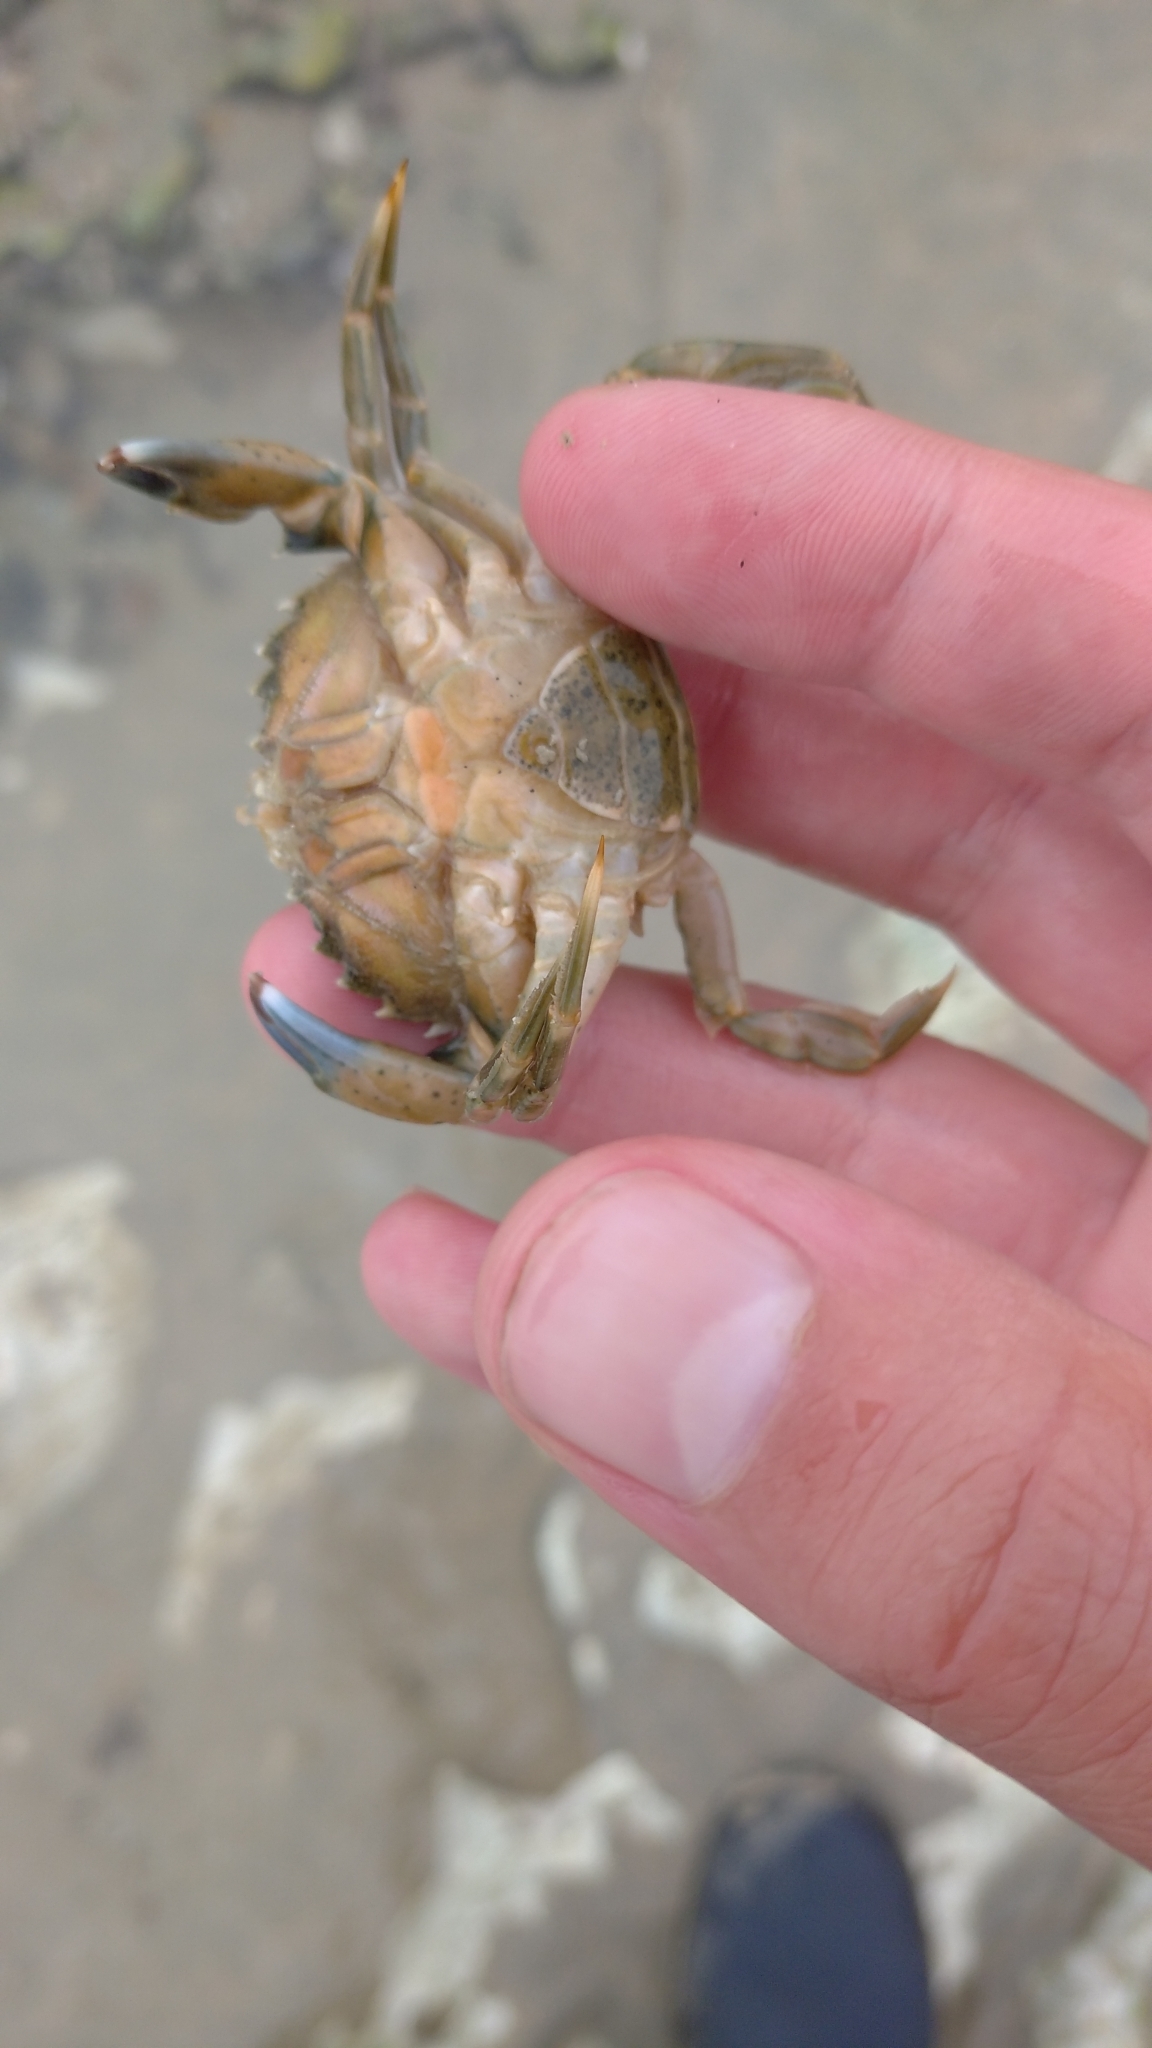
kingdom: Animalia
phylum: Arthropoda
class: Malacostraca
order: Decapoda
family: Carcinidae
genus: Carcinus
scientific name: Carcinus maenas
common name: European green crab
